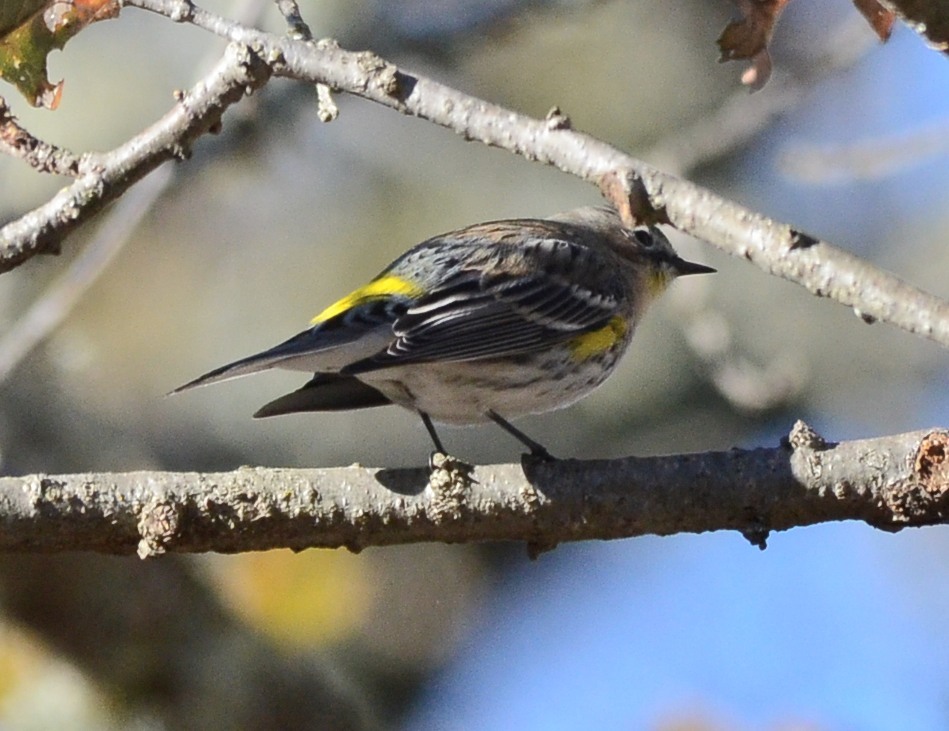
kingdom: Animalia
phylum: Chordata
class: Aves
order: Passeriformes
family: Parulidae
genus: Setophaga
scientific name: Setophaga coronata
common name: Myrtle warbler
